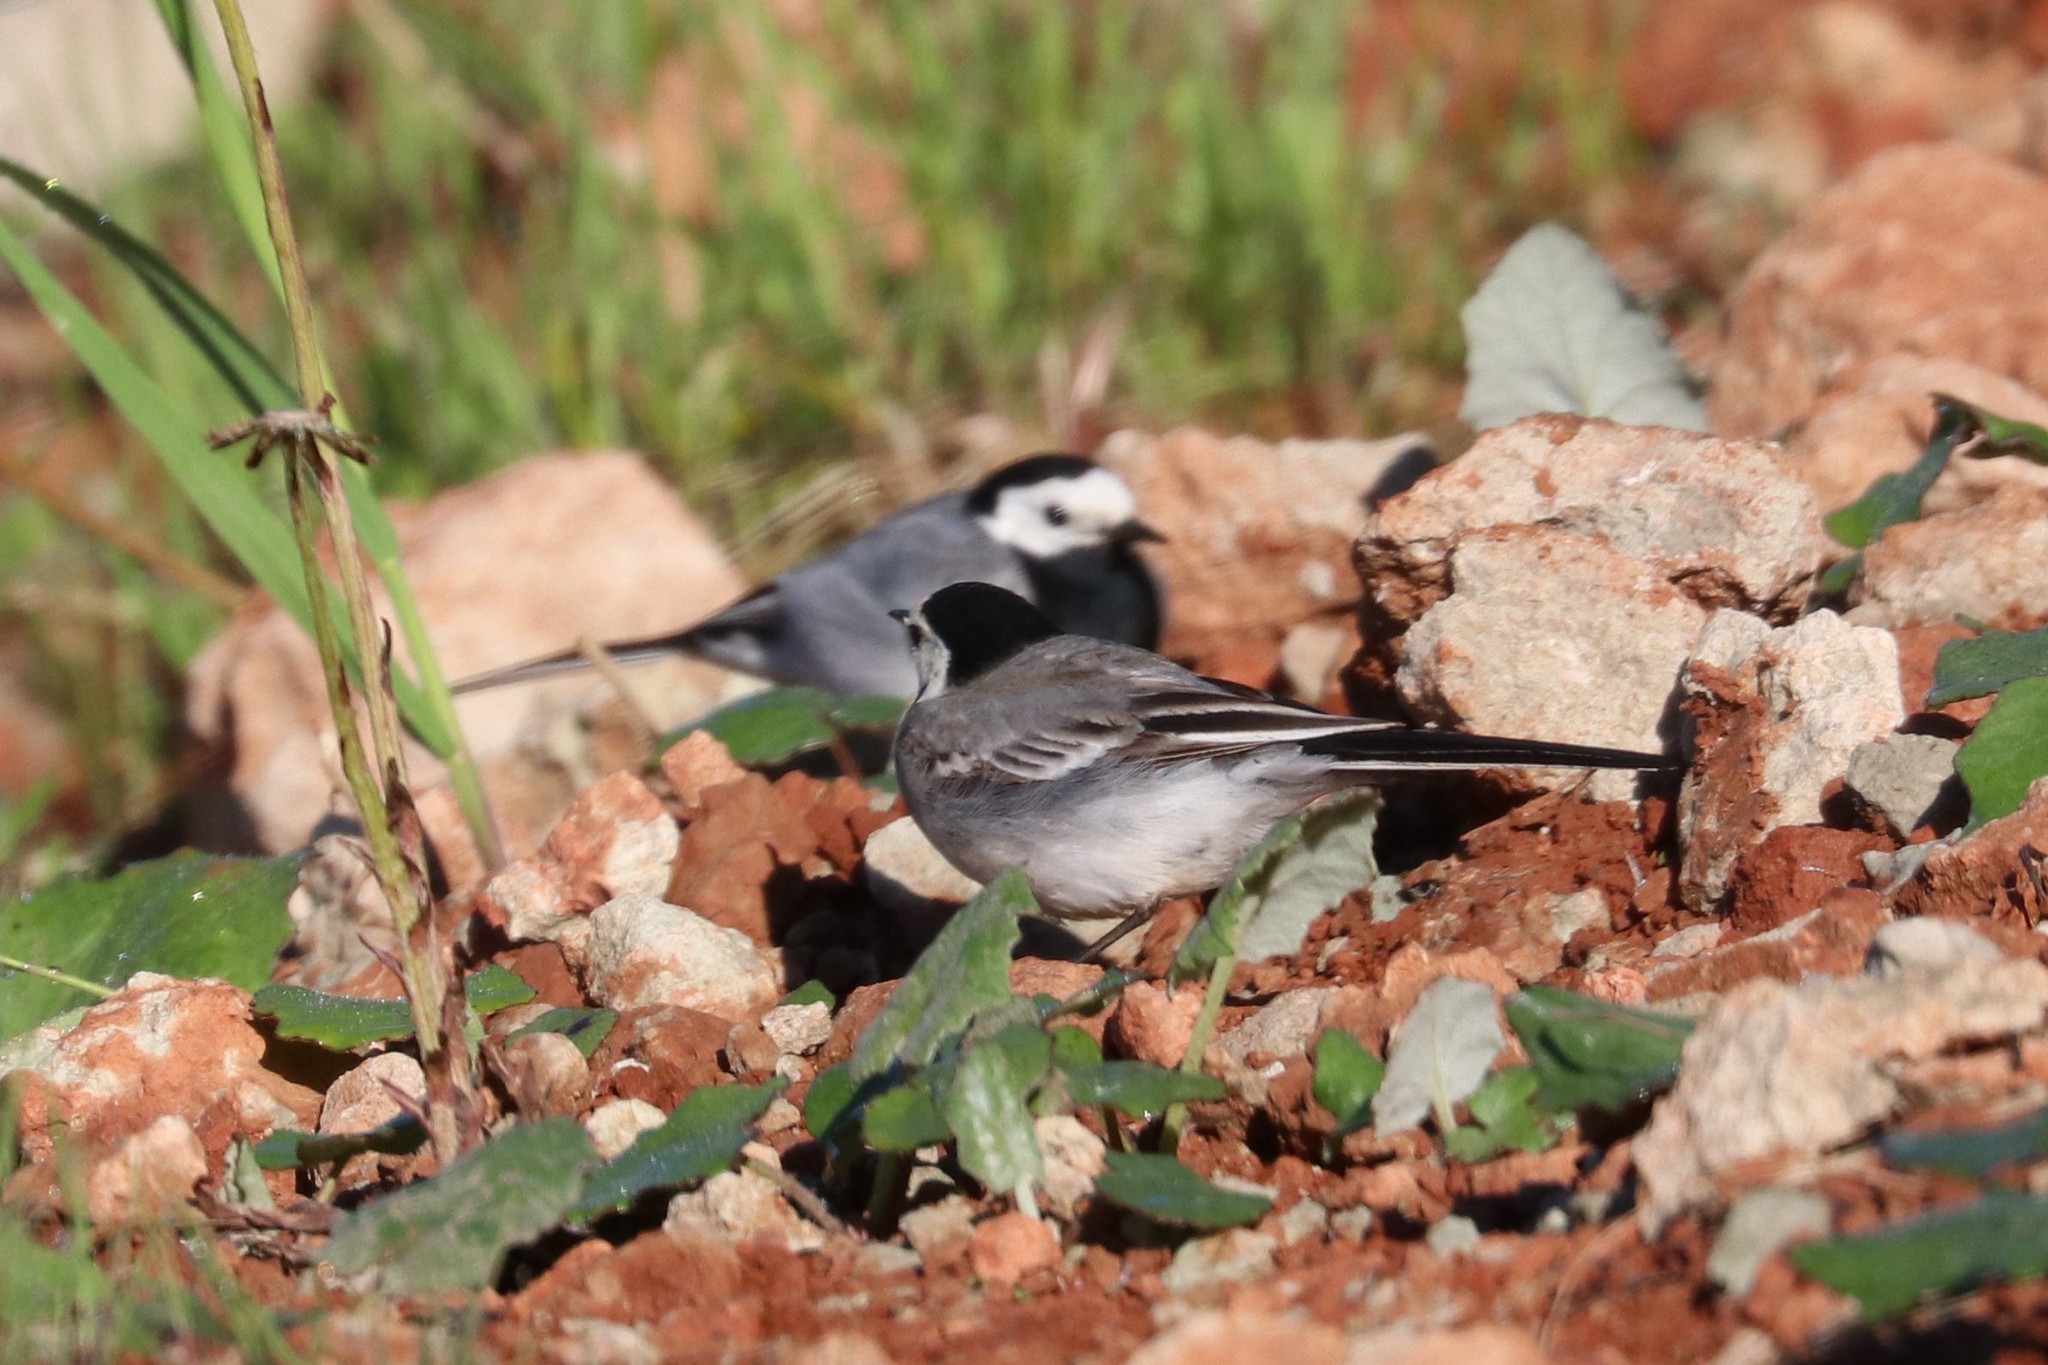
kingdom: Animalia
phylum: Chordata
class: Aves
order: Passeriformes
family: Motacillidae
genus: Motacilla
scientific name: Motacilla alba
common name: White wagtail
